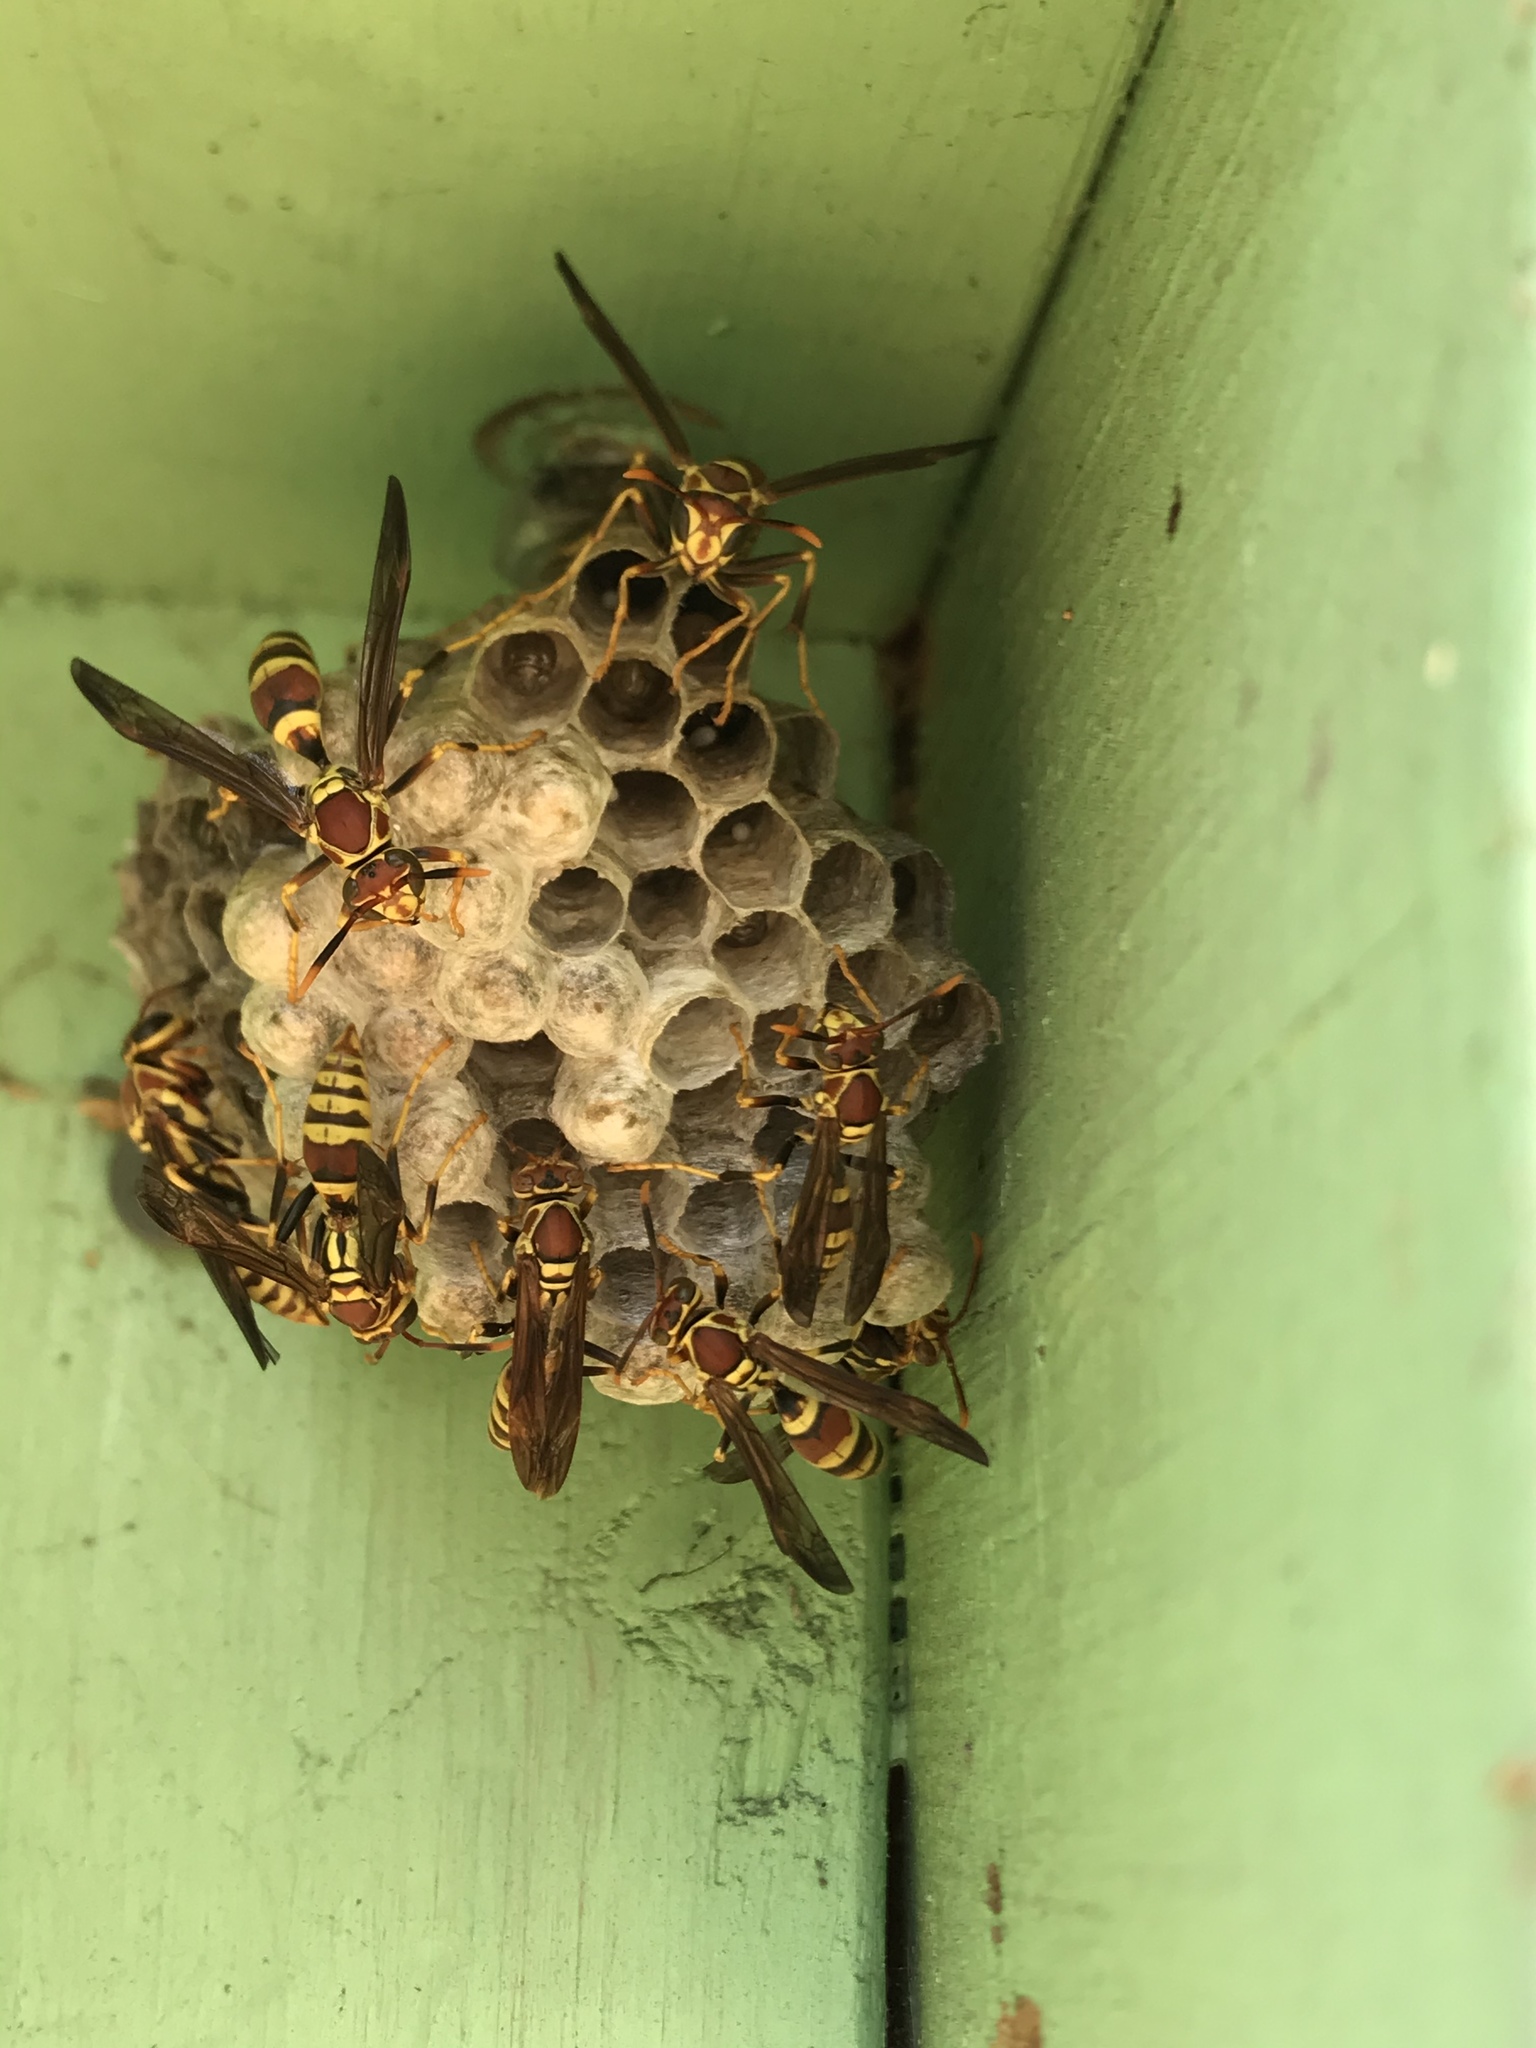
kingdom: Animalia
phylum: Arthropoda
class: Insecta
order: Hymenoptera
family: Eumenidae
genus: Polistes
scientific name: Polistes exclamans
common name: Paper wasp
